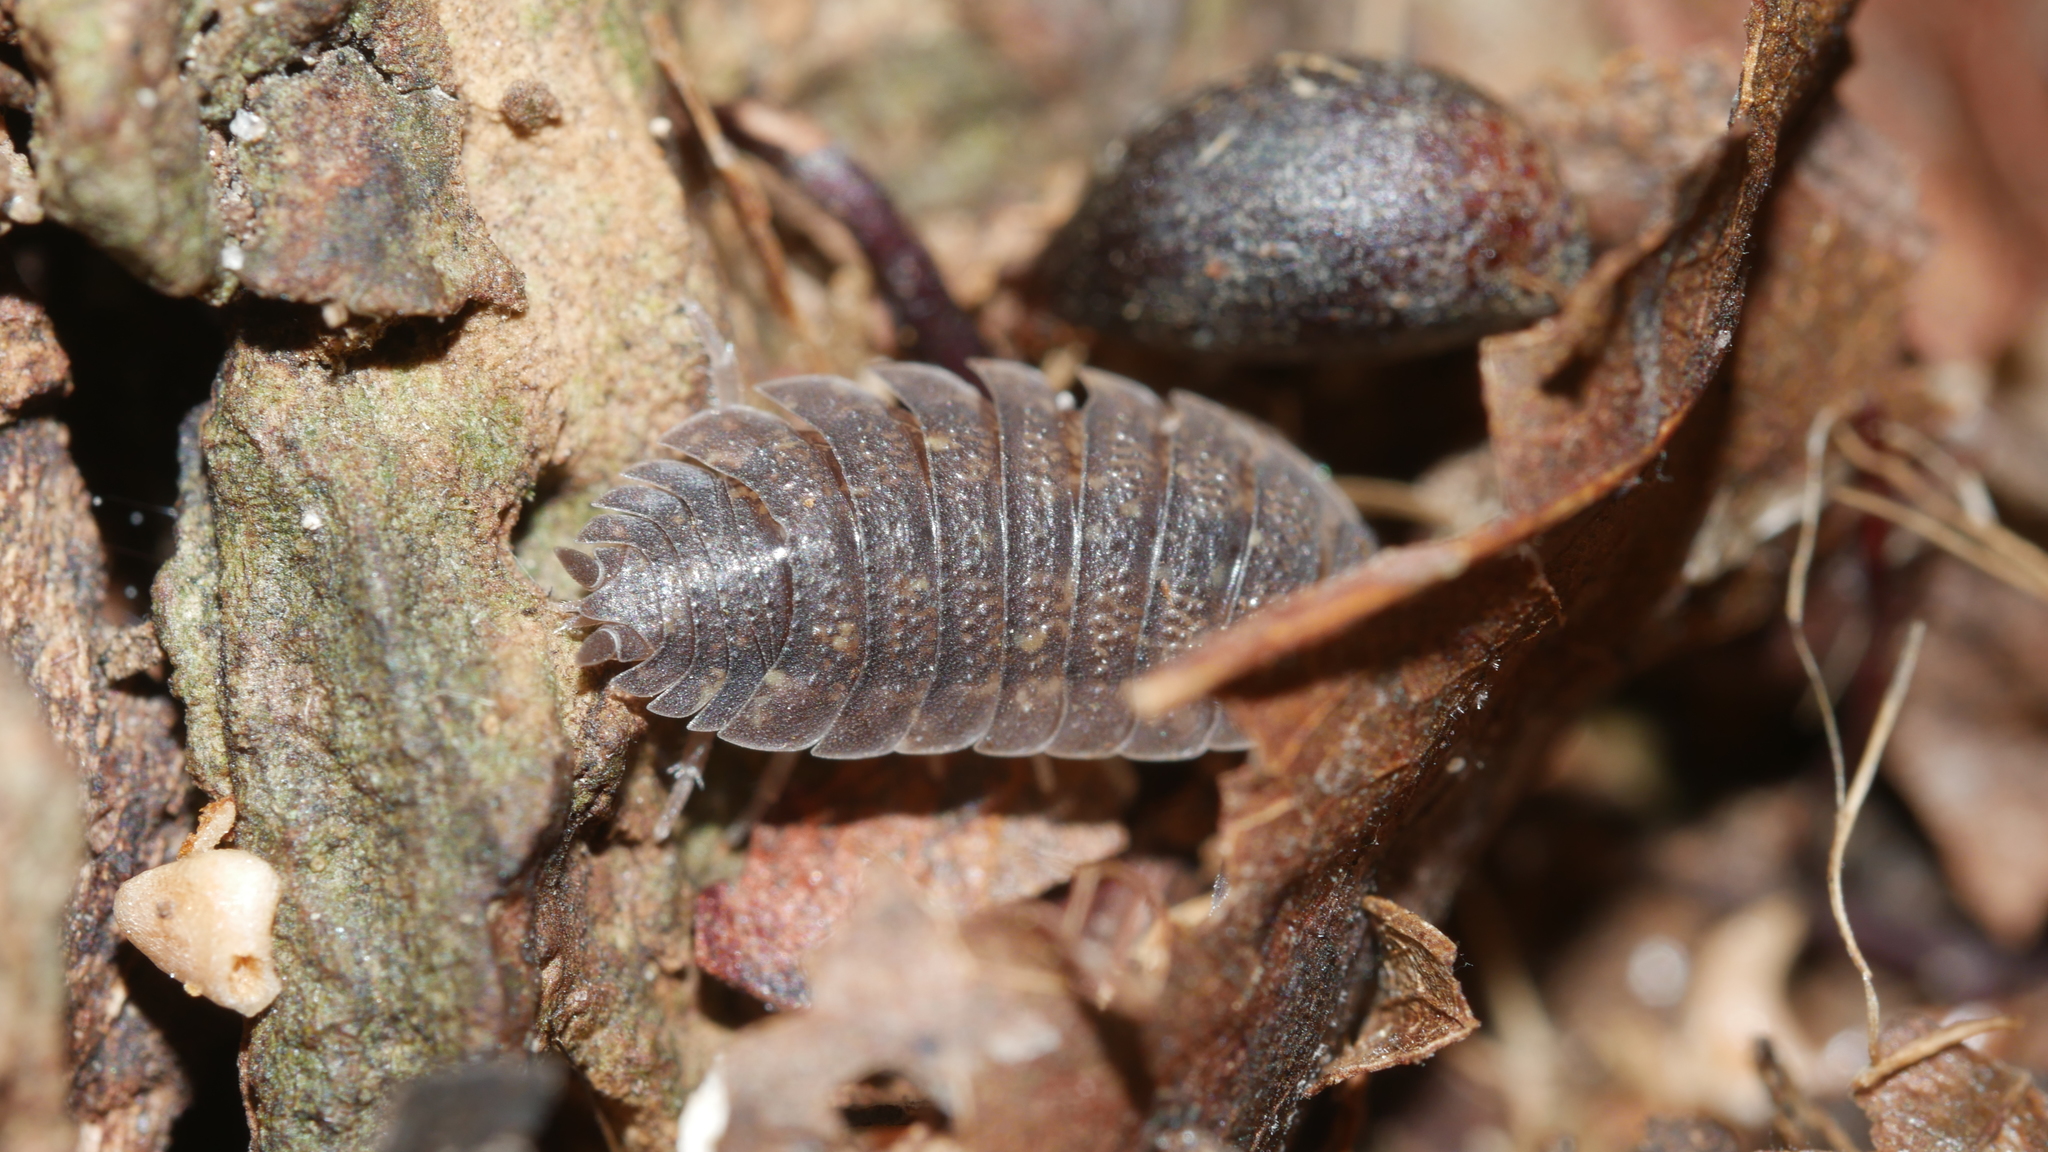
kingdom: Animalia
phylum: Arthropoda
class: Malacostraca
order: Isopoda
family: Porcellionidae
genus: Porcellio
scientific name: Porcellio scaber
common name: Common rough woodlouse
